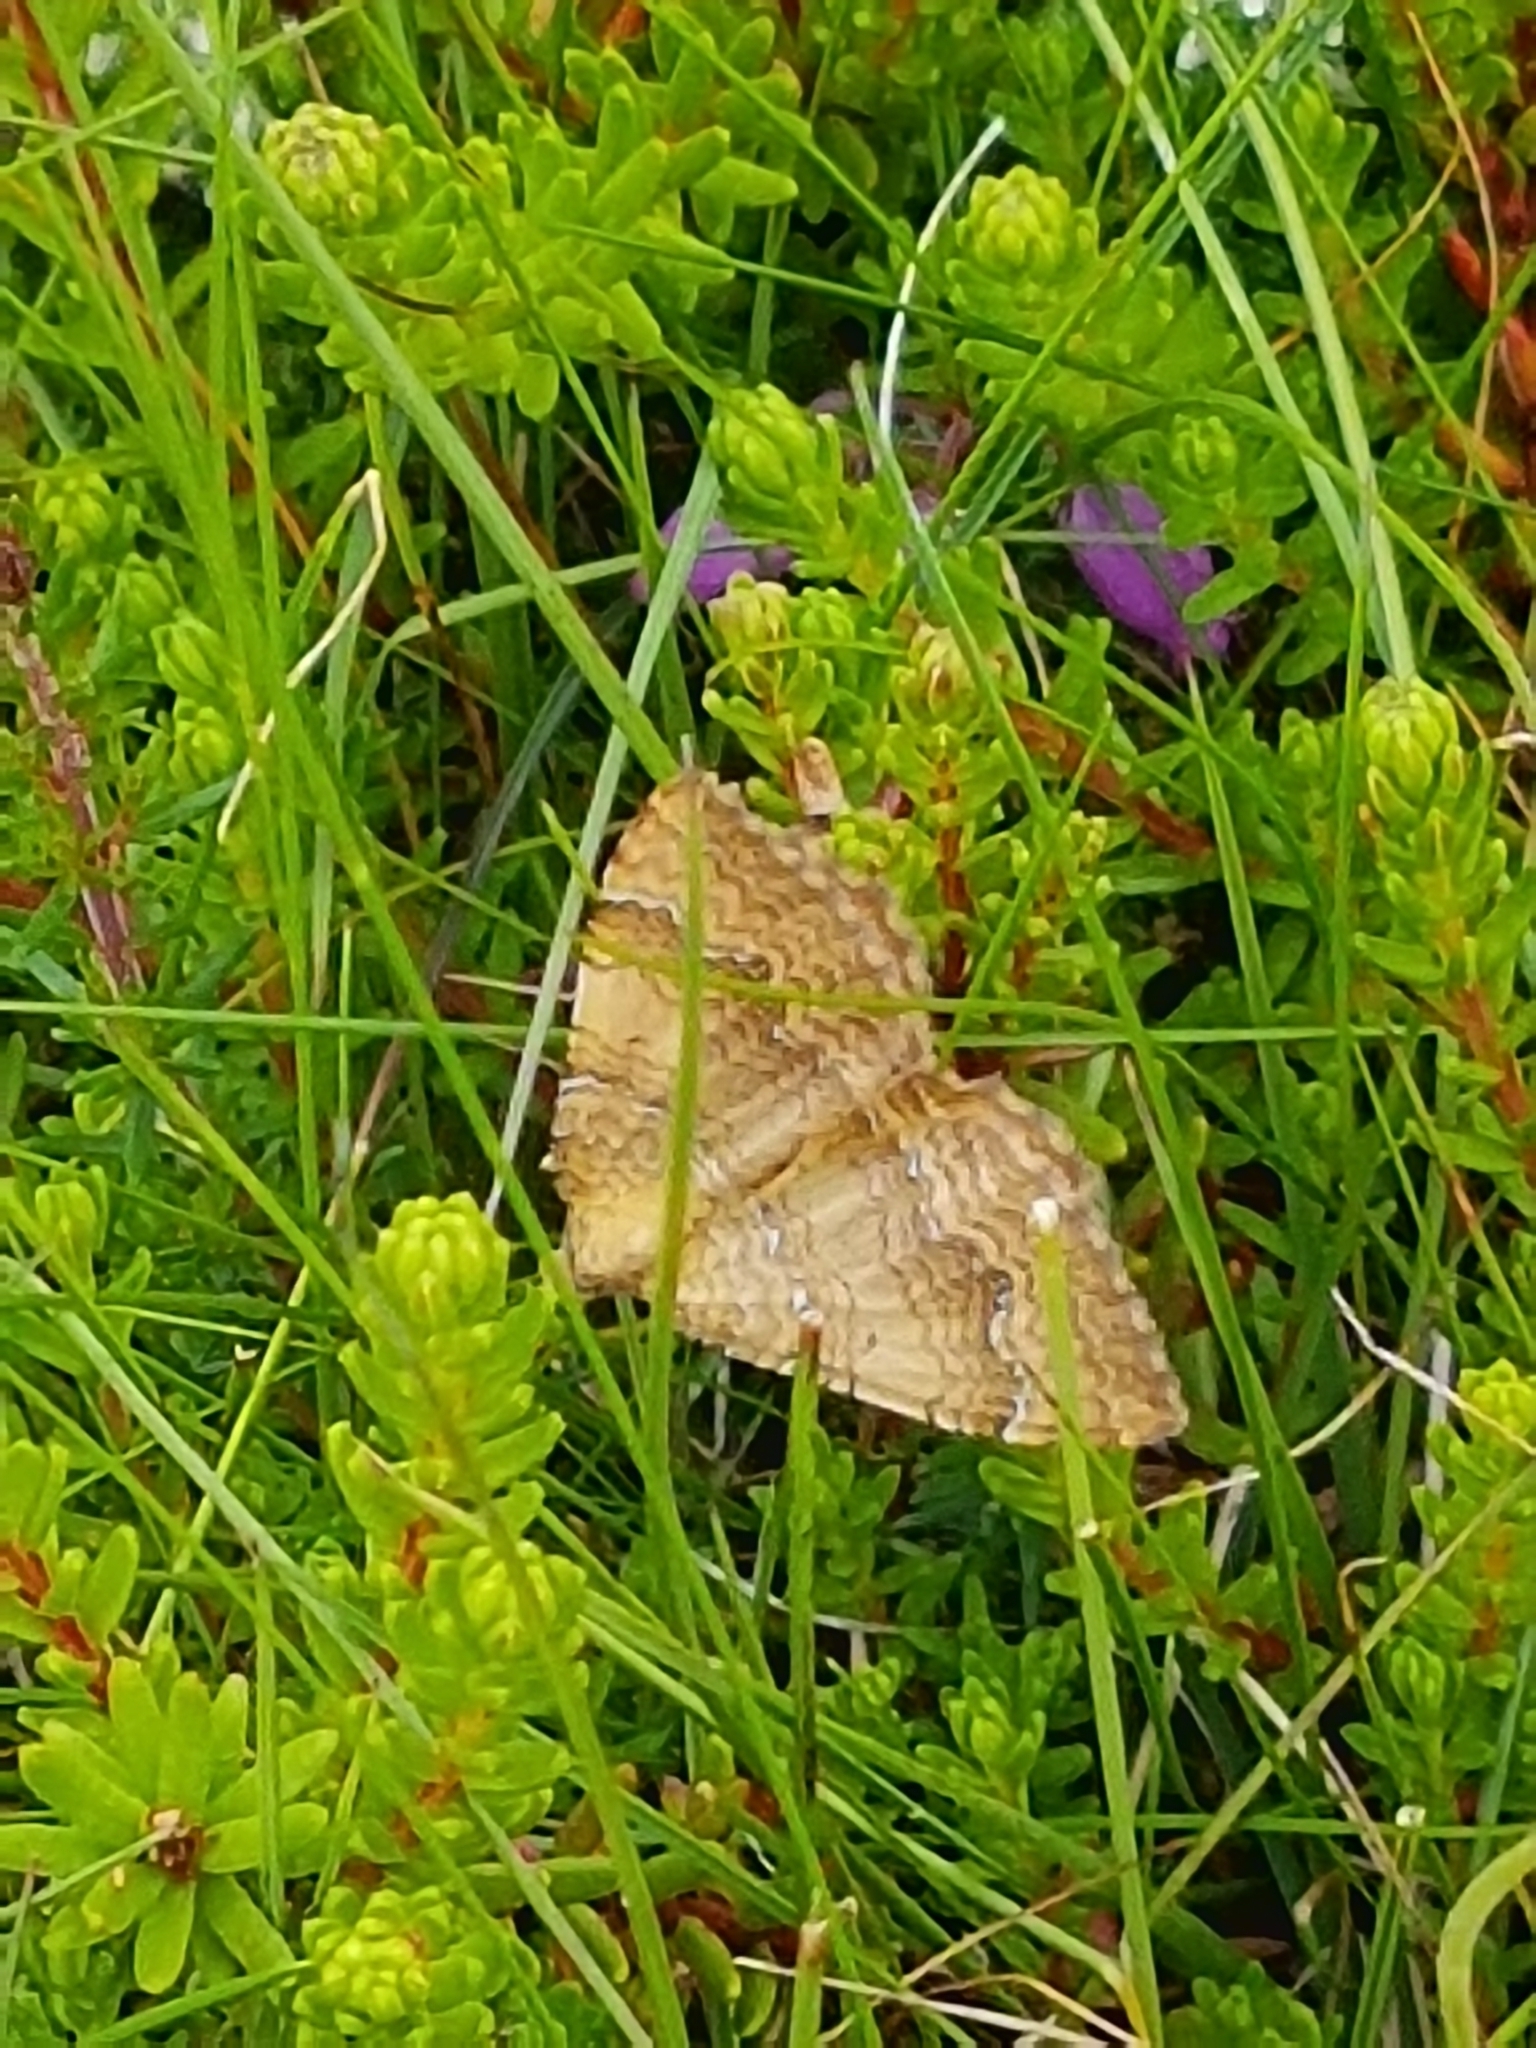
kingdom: Animalia
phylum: Arthropoda
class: Insecta
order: Lepidoptera
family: Geometridae
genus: Camptogramma
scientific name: Camptogramma bilineata
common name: Yellow shell
